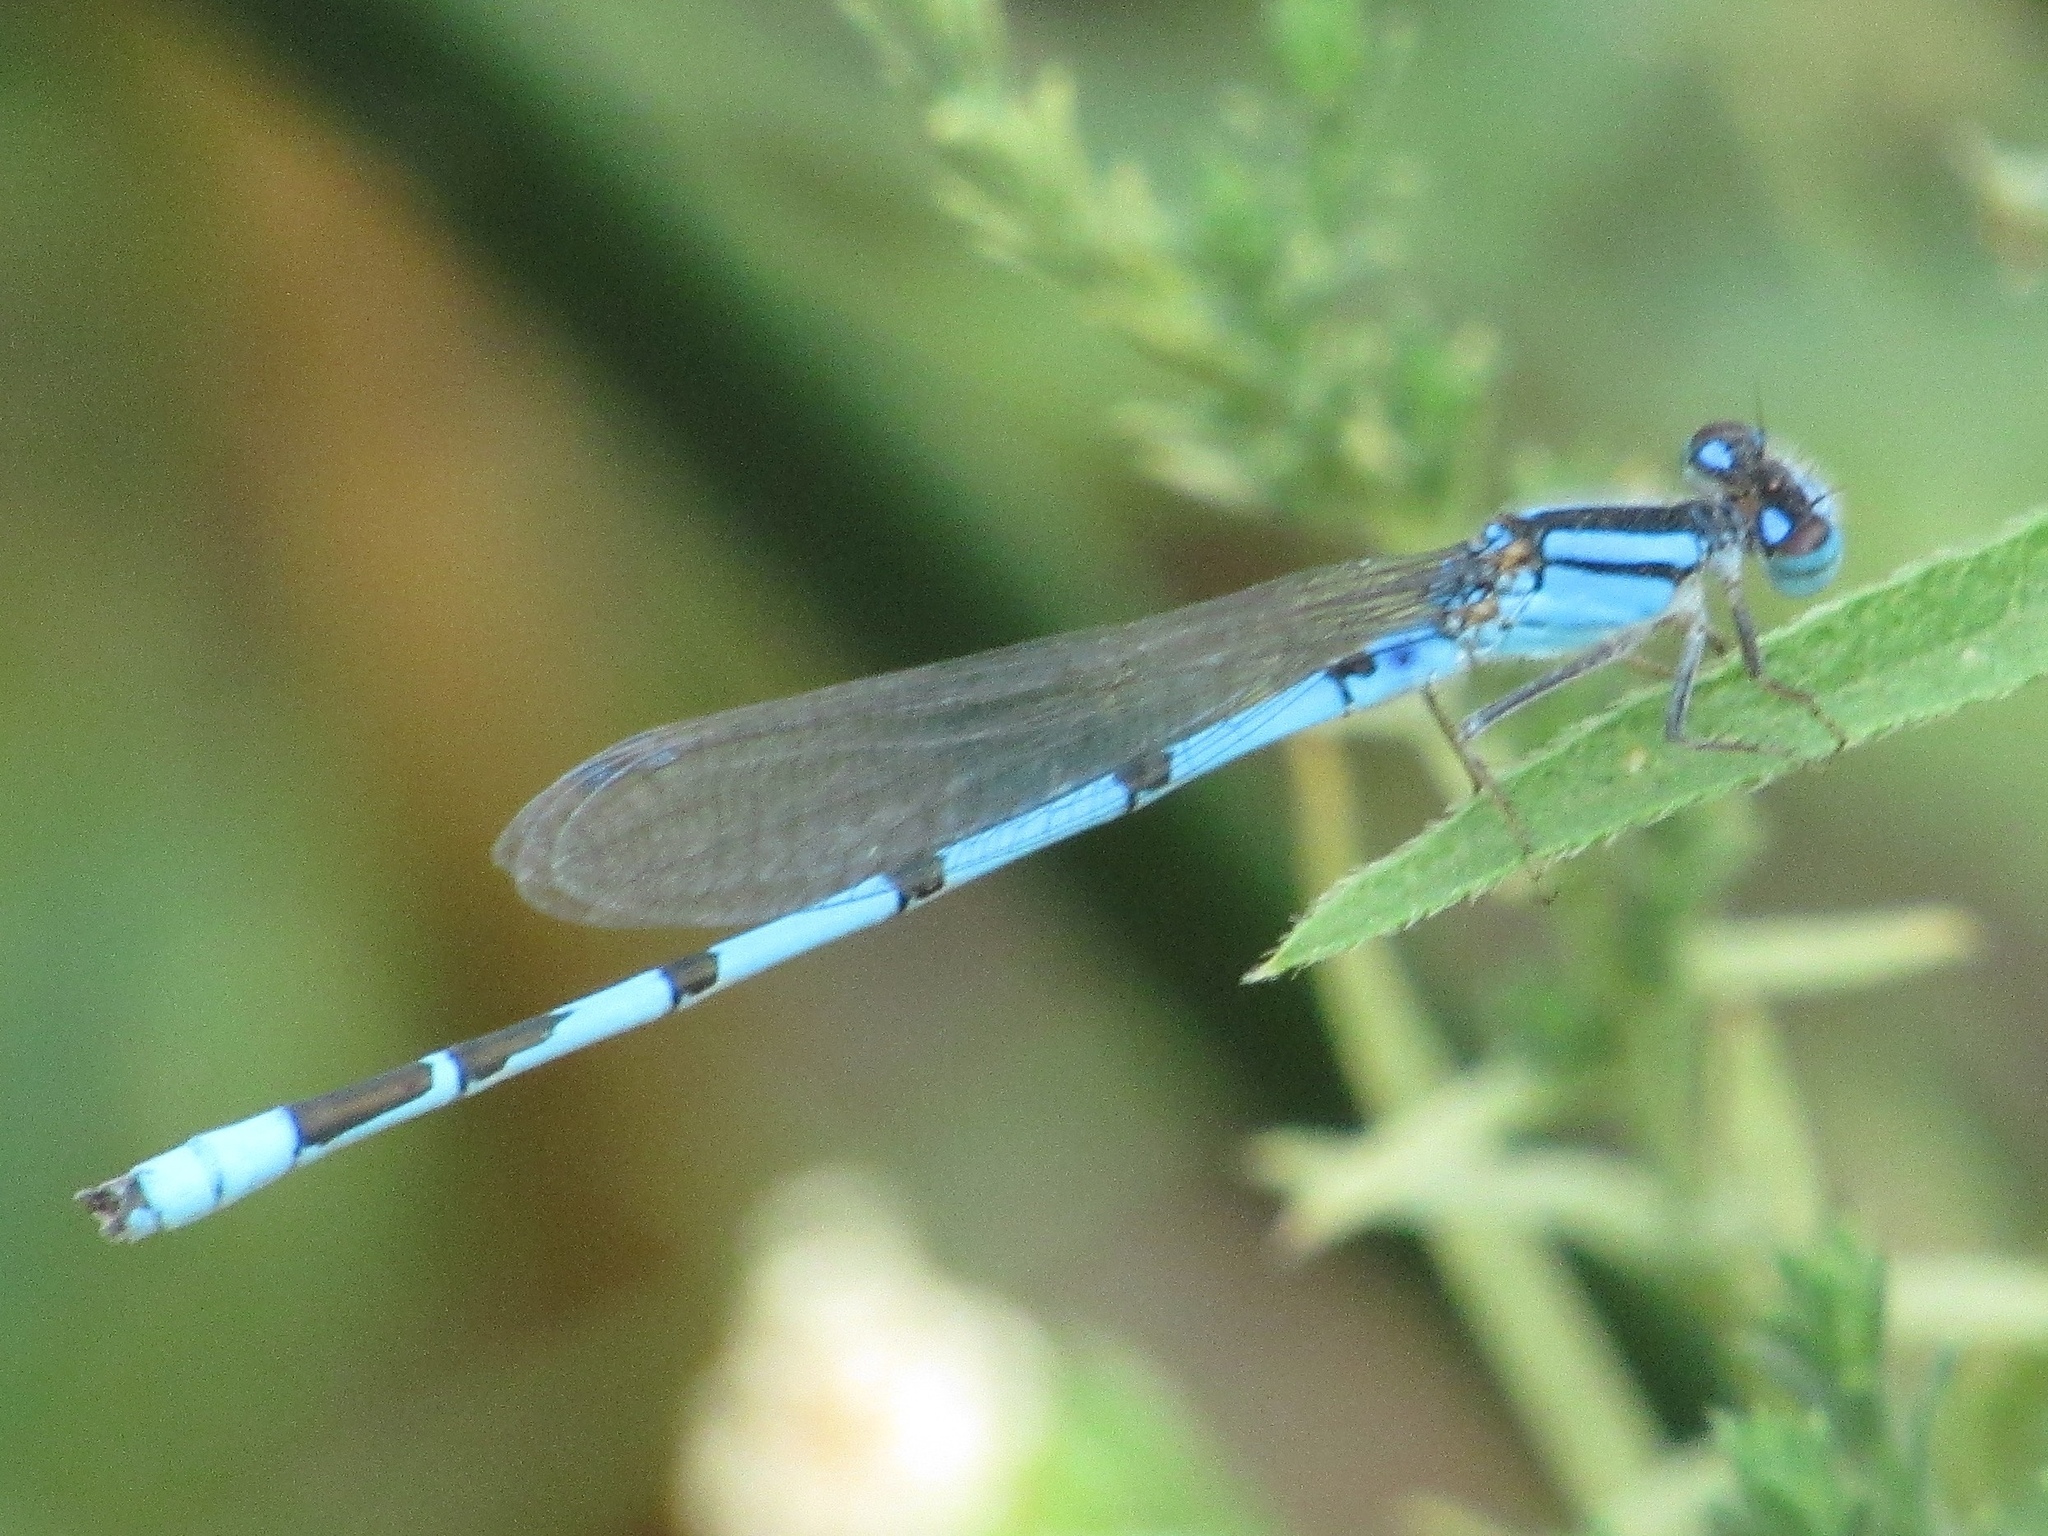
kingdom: Animalia
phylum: Arthropoda
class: Insecta
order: Odonata
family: Coenagrionidae
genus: Enallagma
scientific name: Enallagma civile
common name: Damselfly
